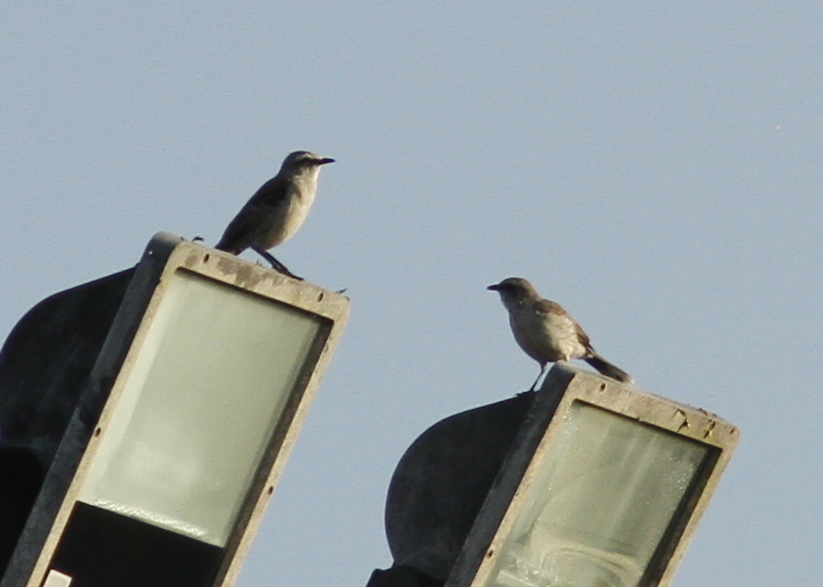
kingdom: Animalia
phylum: Chordata
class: Aves
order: Passeriformes
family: Mimidae
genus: Mimus
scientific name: Mimus gilvus
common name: Tropical mockingbird
